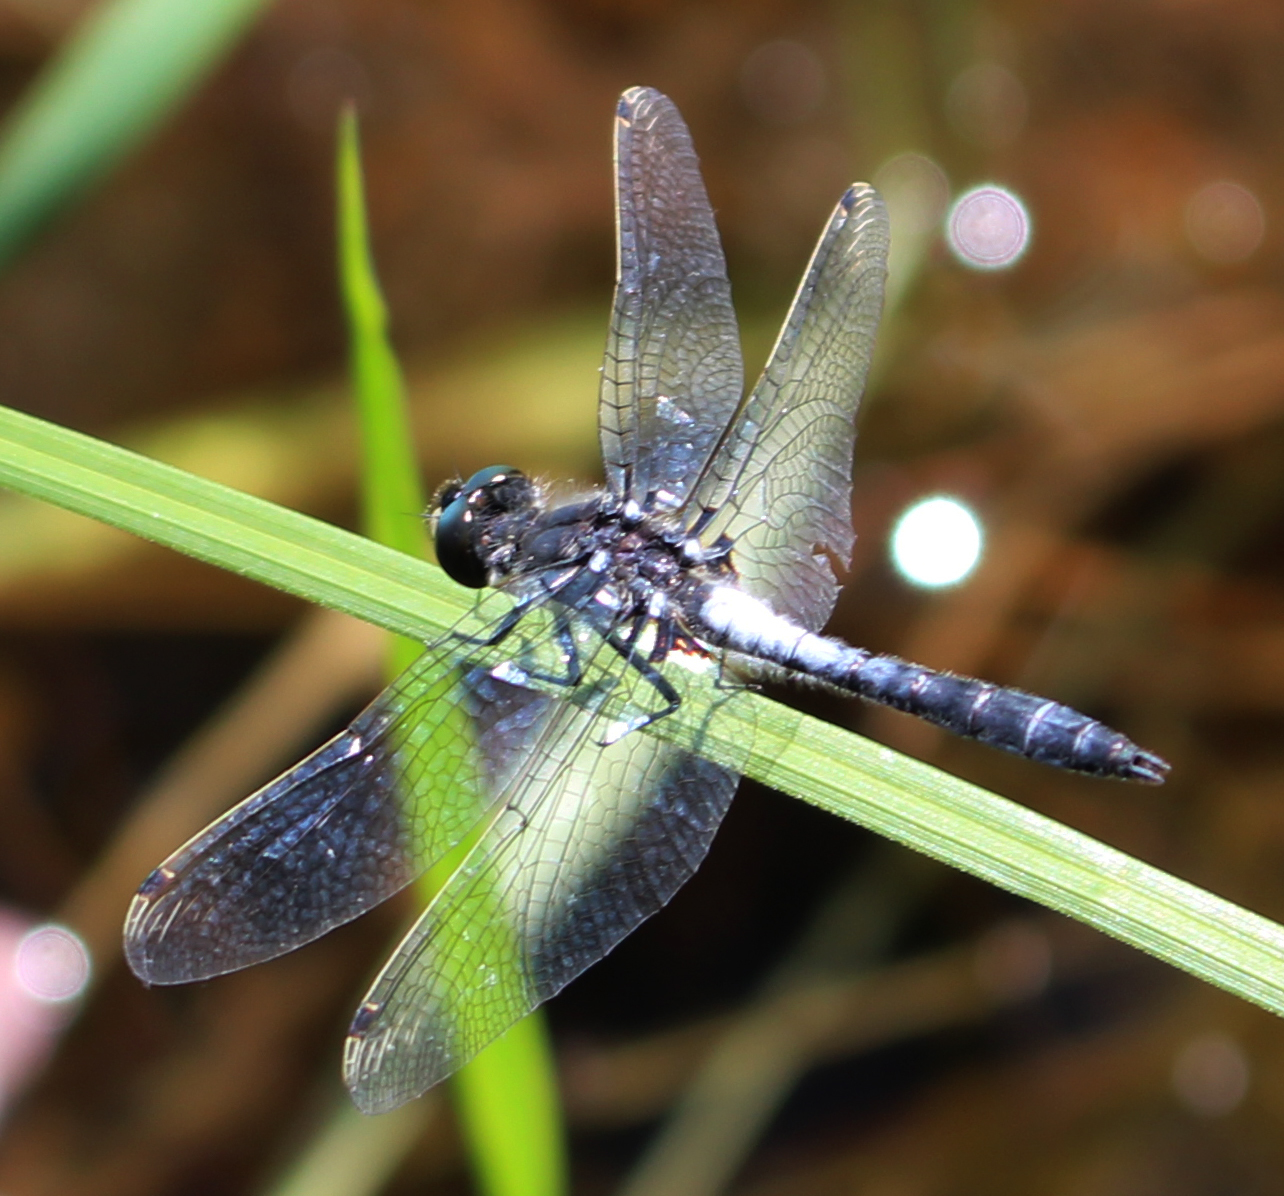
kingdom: Animalia
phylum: Arthropoda
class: Insecta
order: Odonata
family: Libellulidae
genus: Leucorrhinia
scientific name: Leucorrhinia frigida
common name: Frosted whiteface
